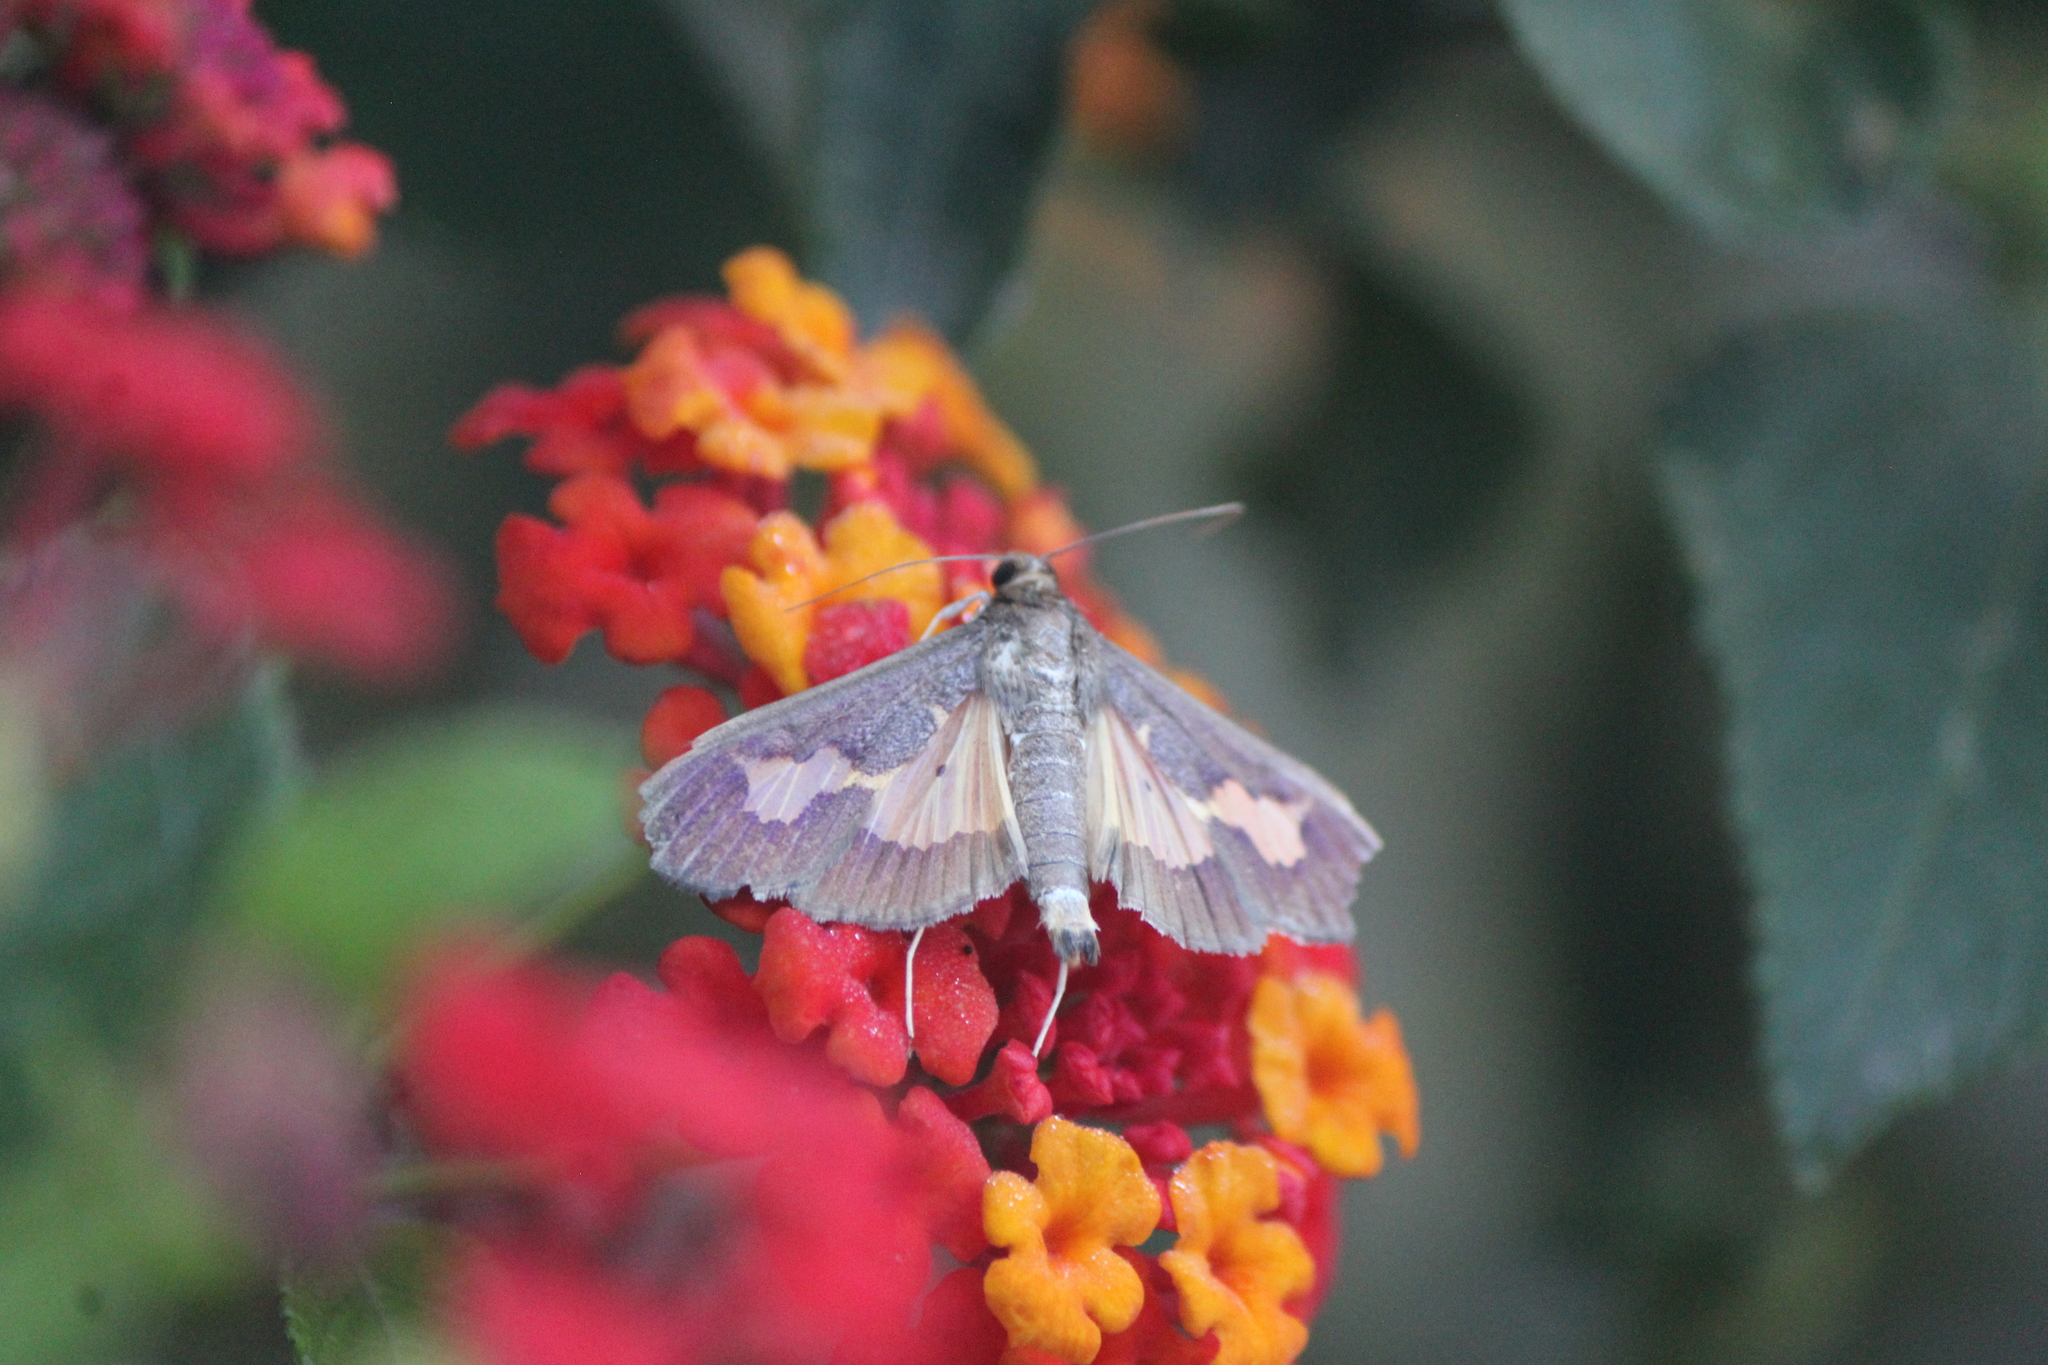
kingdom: Animalia
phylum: Arthropoda
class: Insecta
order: Lepidoptera
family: Crambidae
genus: Cryptographis
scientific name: Cryptographis nitidalis
